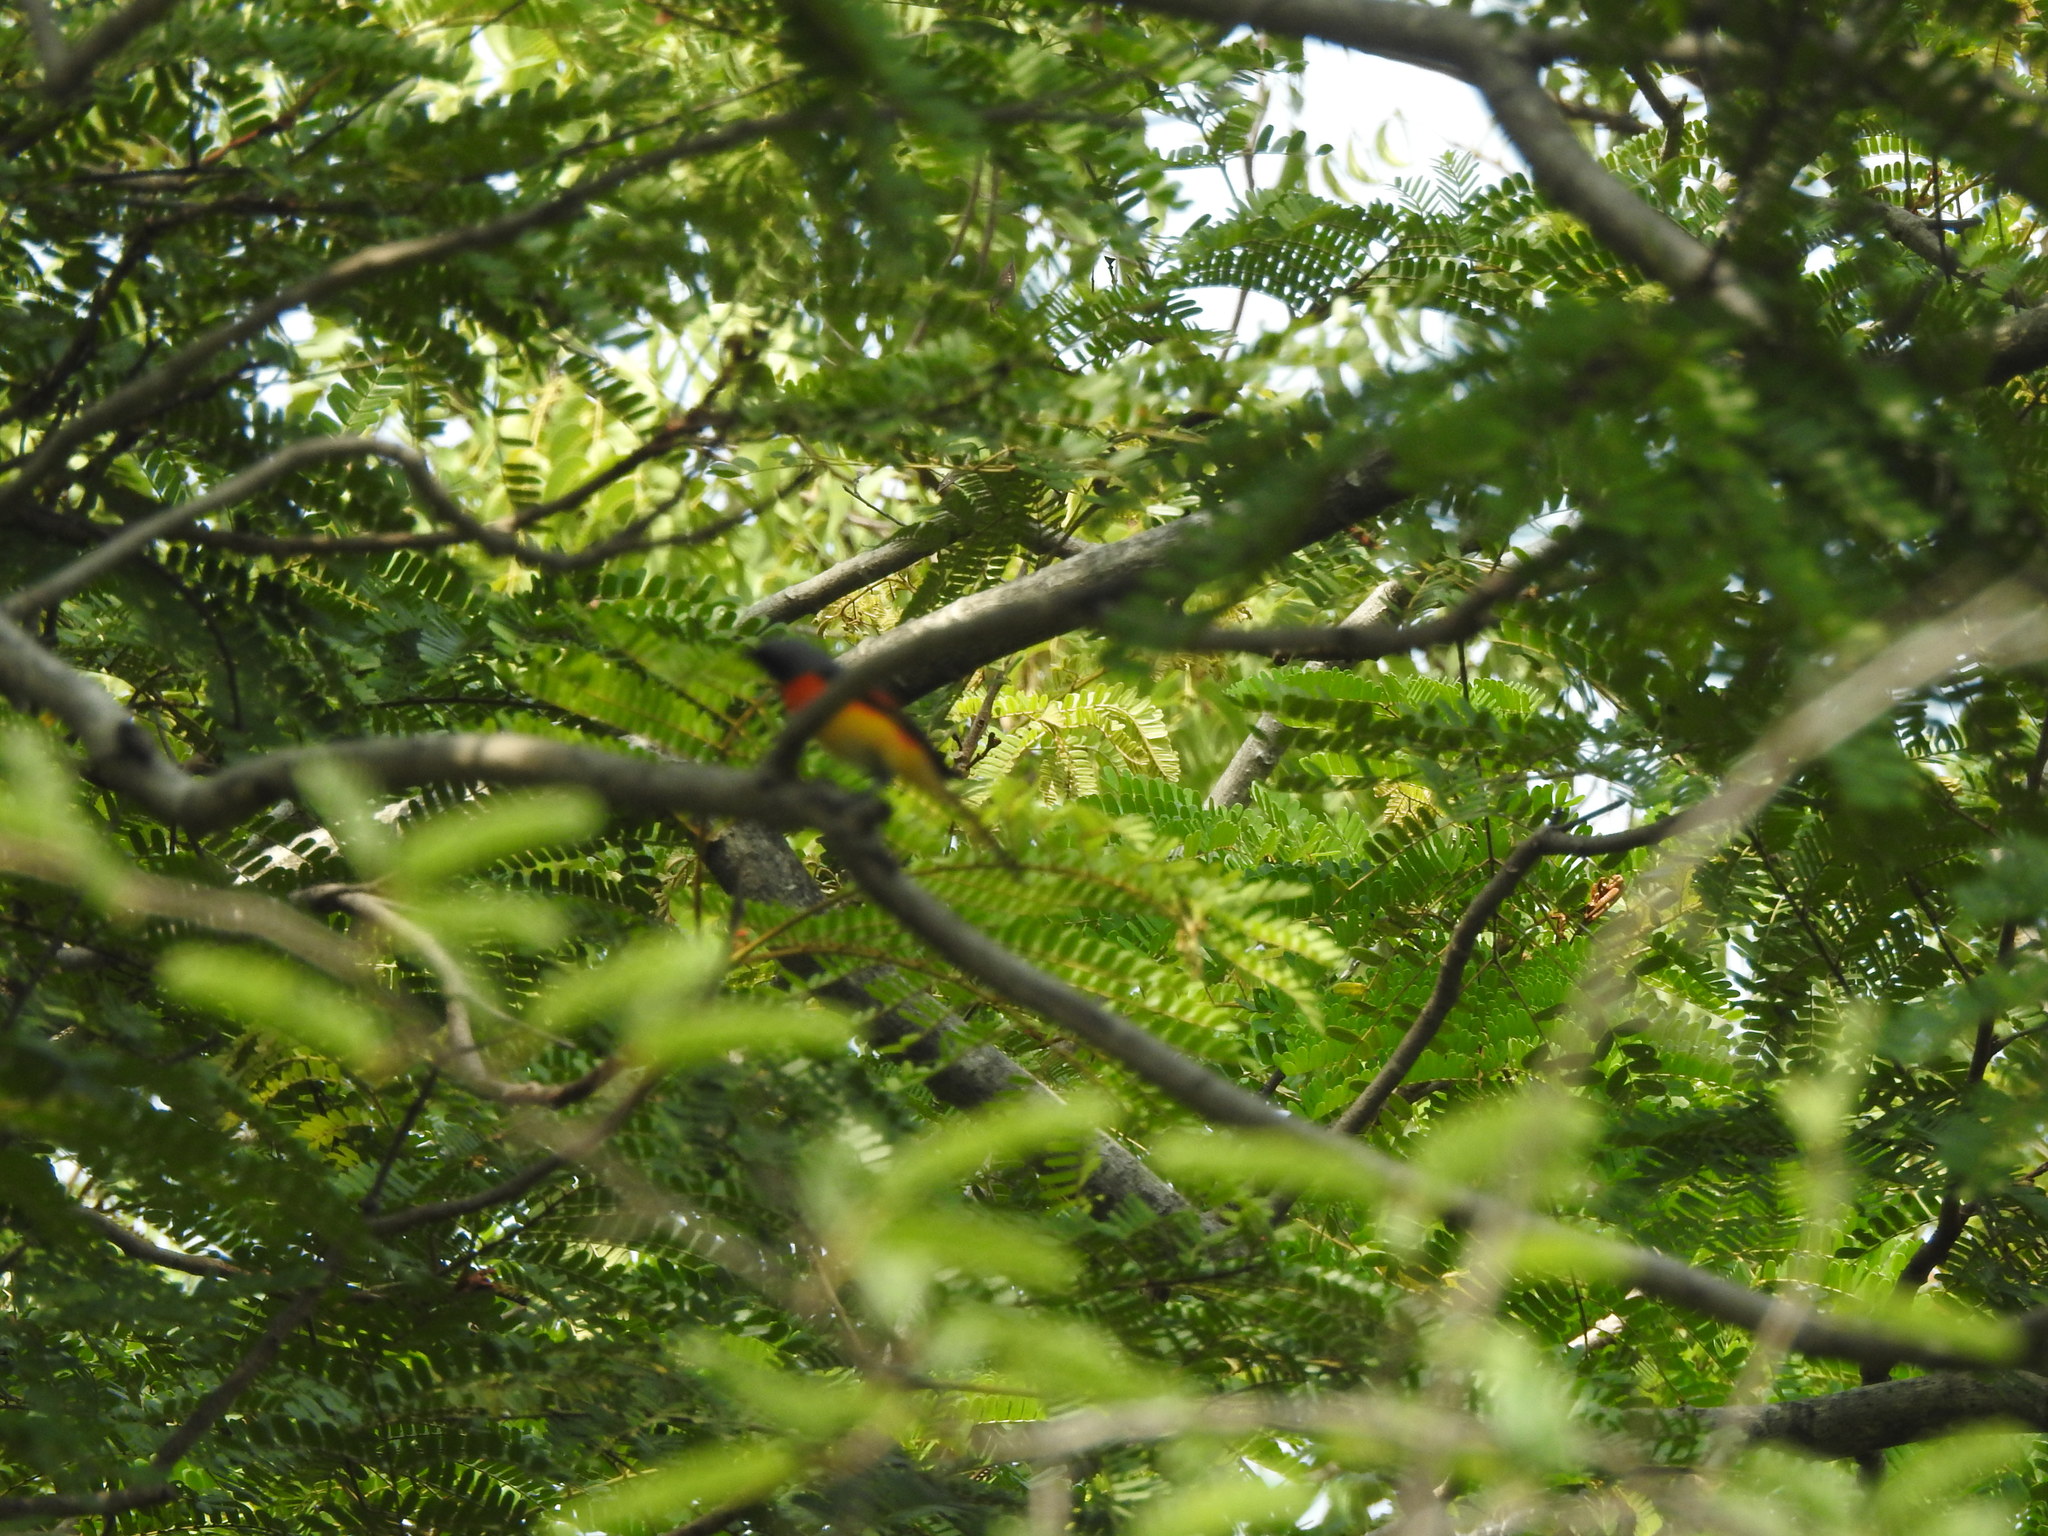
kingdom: Animalia
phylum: Chordata
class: Aves
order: Passeriformes
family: Campephagidae
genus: Pericrocotus
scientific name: Pericrocotus cinnamomeus
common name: Small minivet
